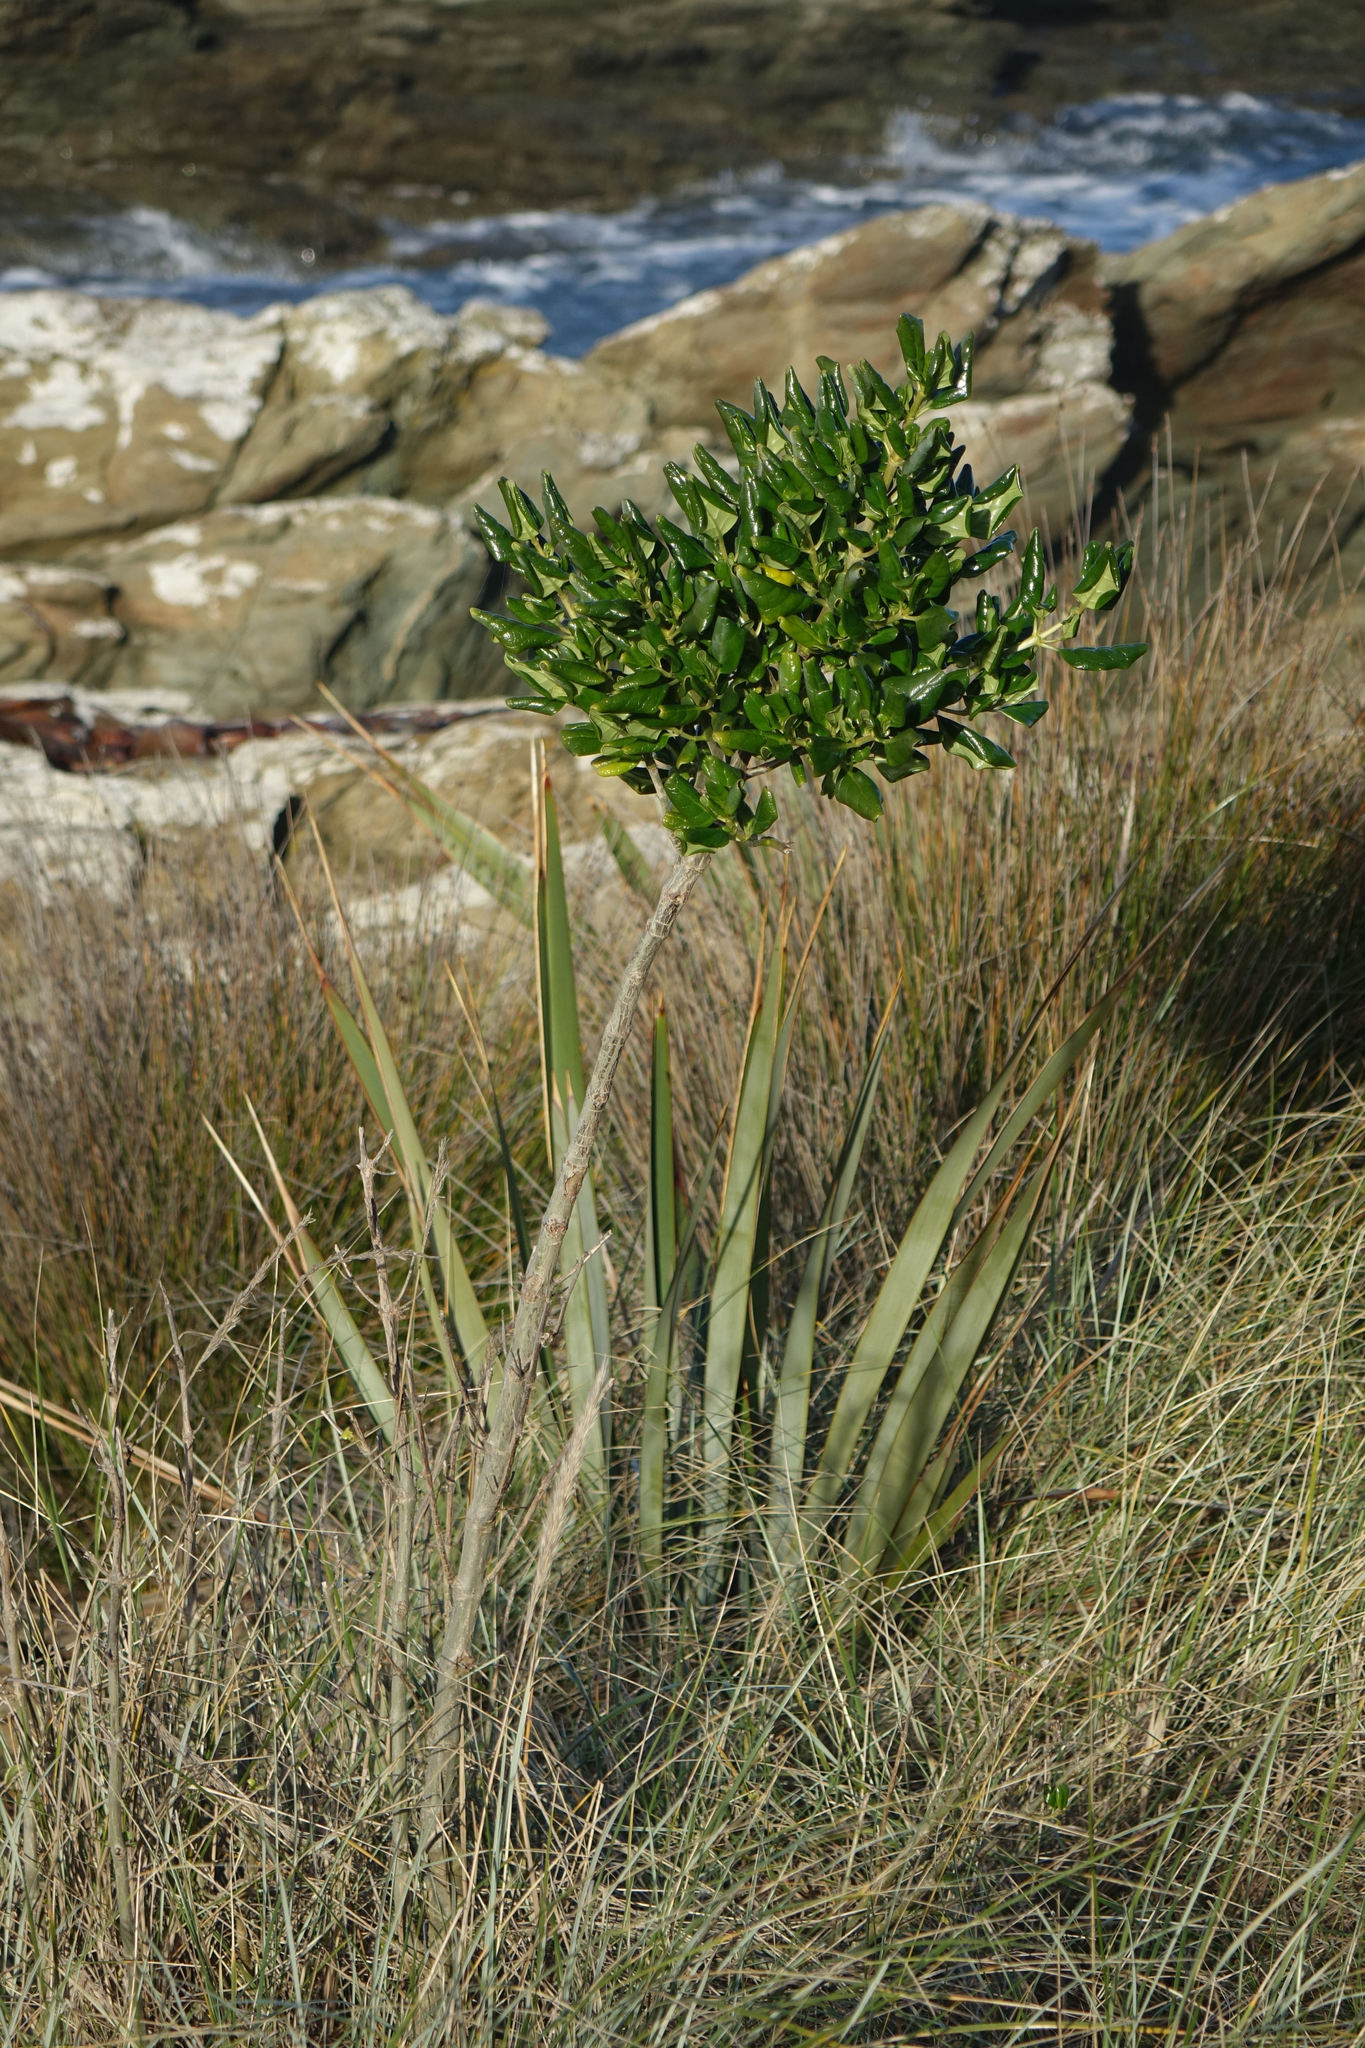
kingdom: Plantae
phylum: Tracheophyta
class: Magnoliopsida
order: Gentianales
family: Rubiaceae
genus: Coprosma
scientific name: Coprosma repens
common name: Tree bedstraw
